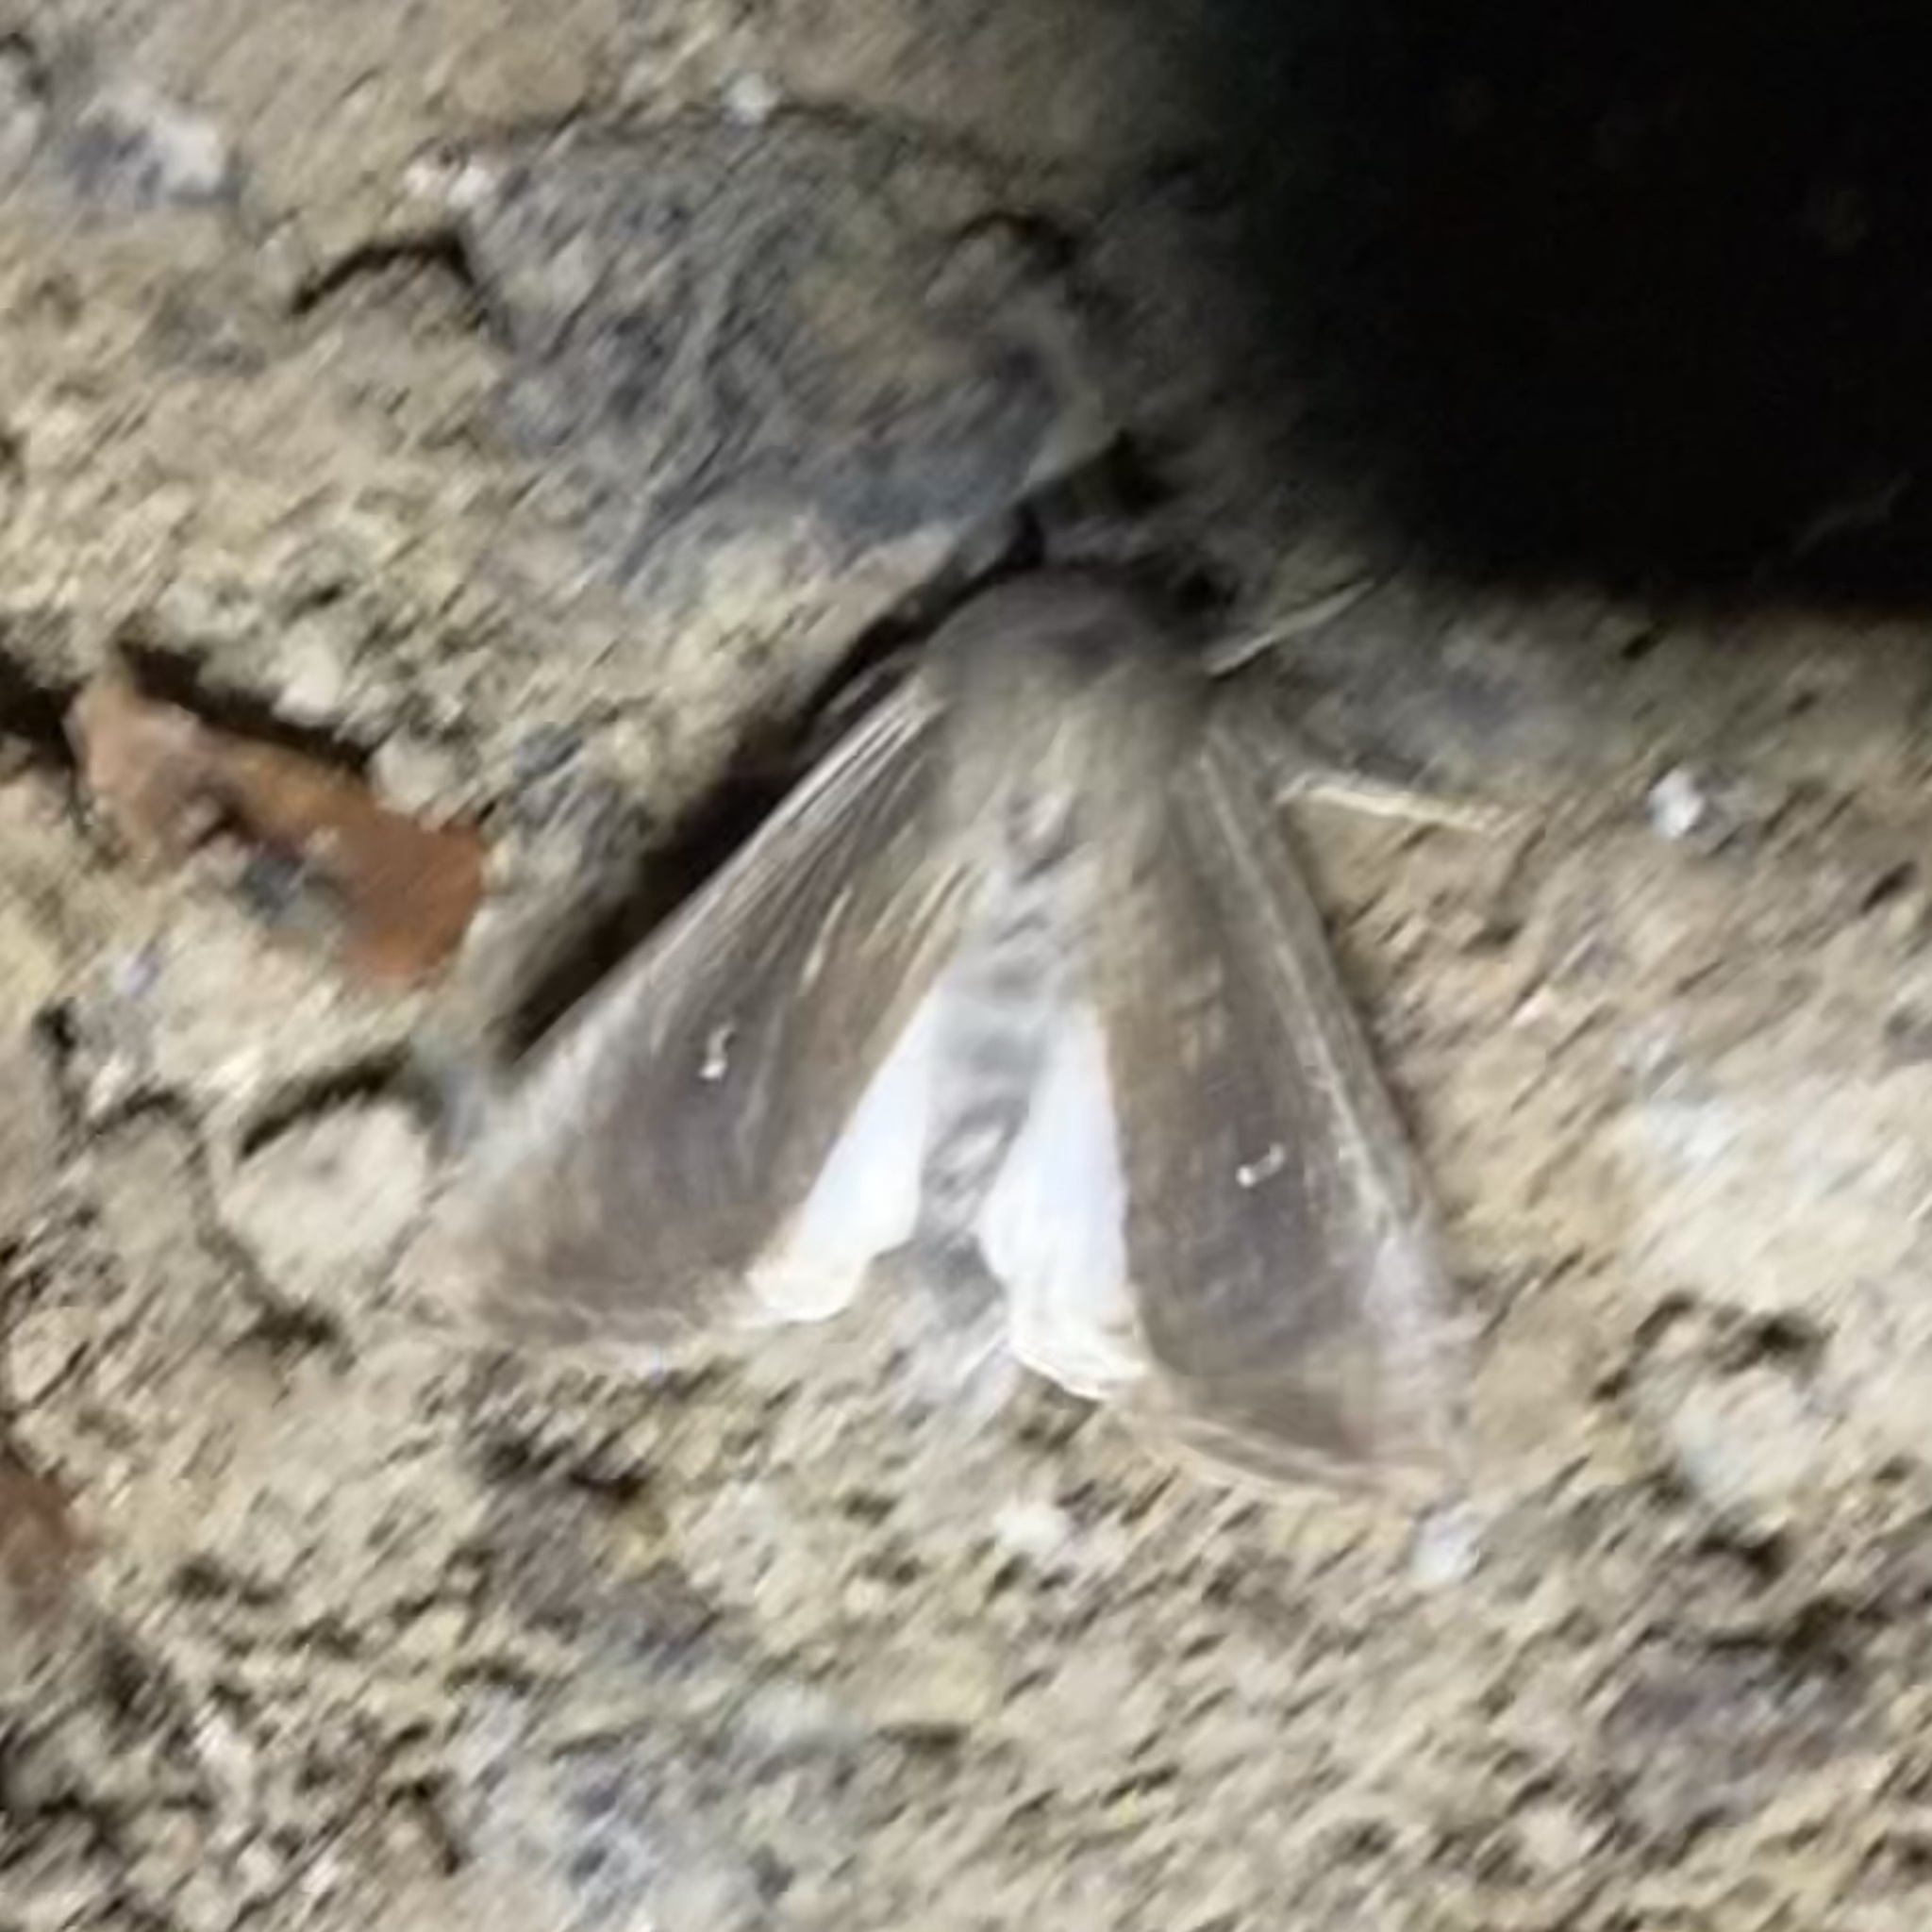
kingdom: Animalia
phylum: Arthropoda
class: Insecta
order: Lepidoptera
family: Noctuidae
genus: Leucania
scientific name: Leucania latiuscula
